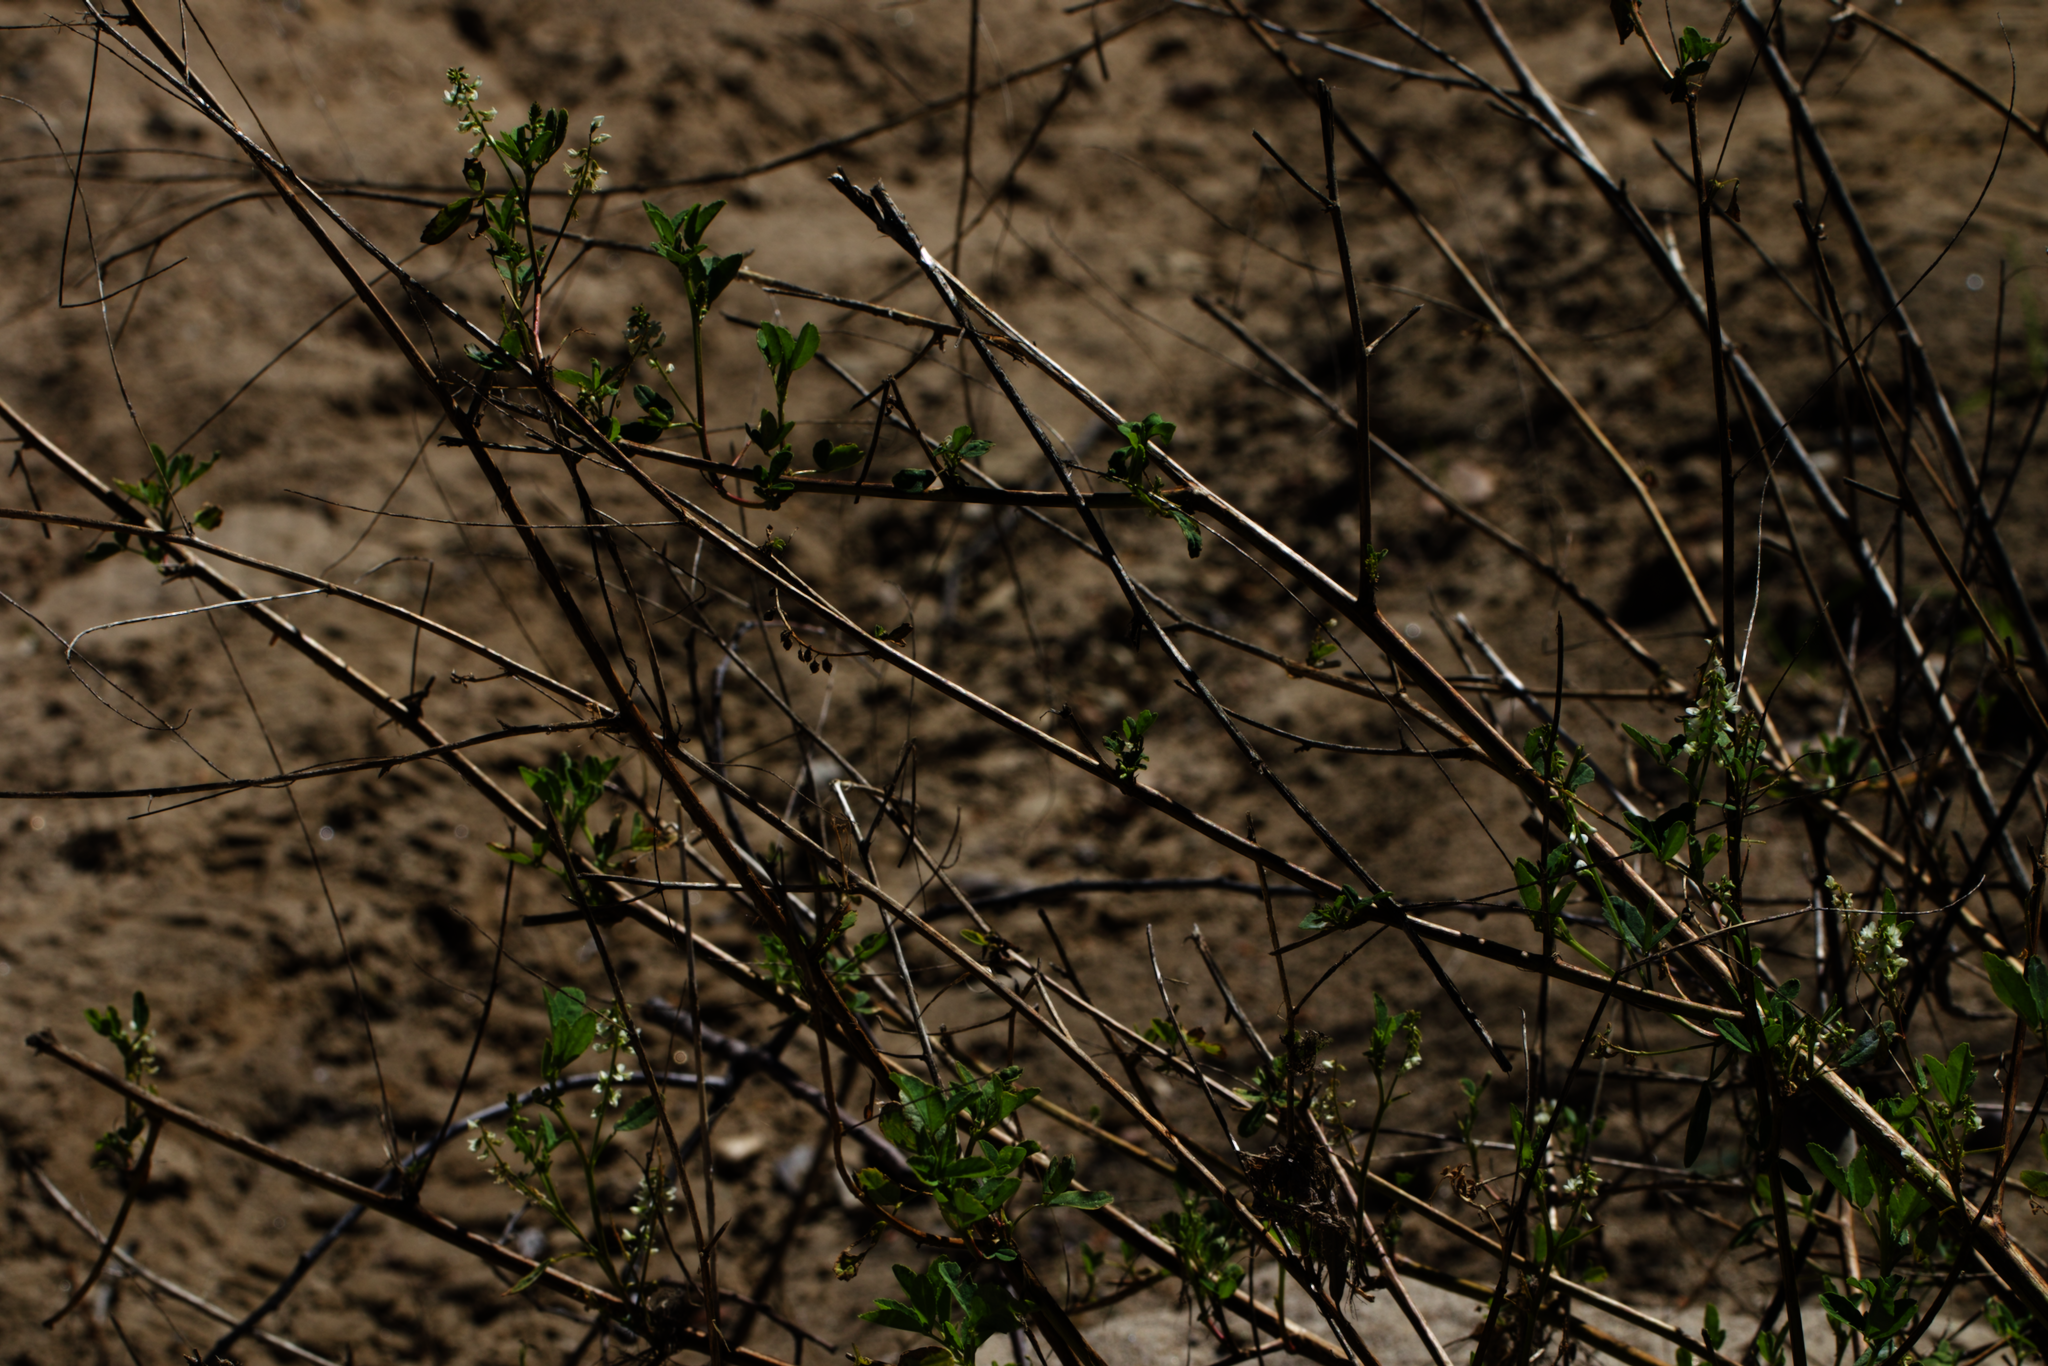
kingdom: Plantae
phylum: Tracheophyta
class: Magnoliopsida
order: Fabales
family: Fabaceae
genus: Melilotus
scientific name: Melilotus albus
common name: White melilot
